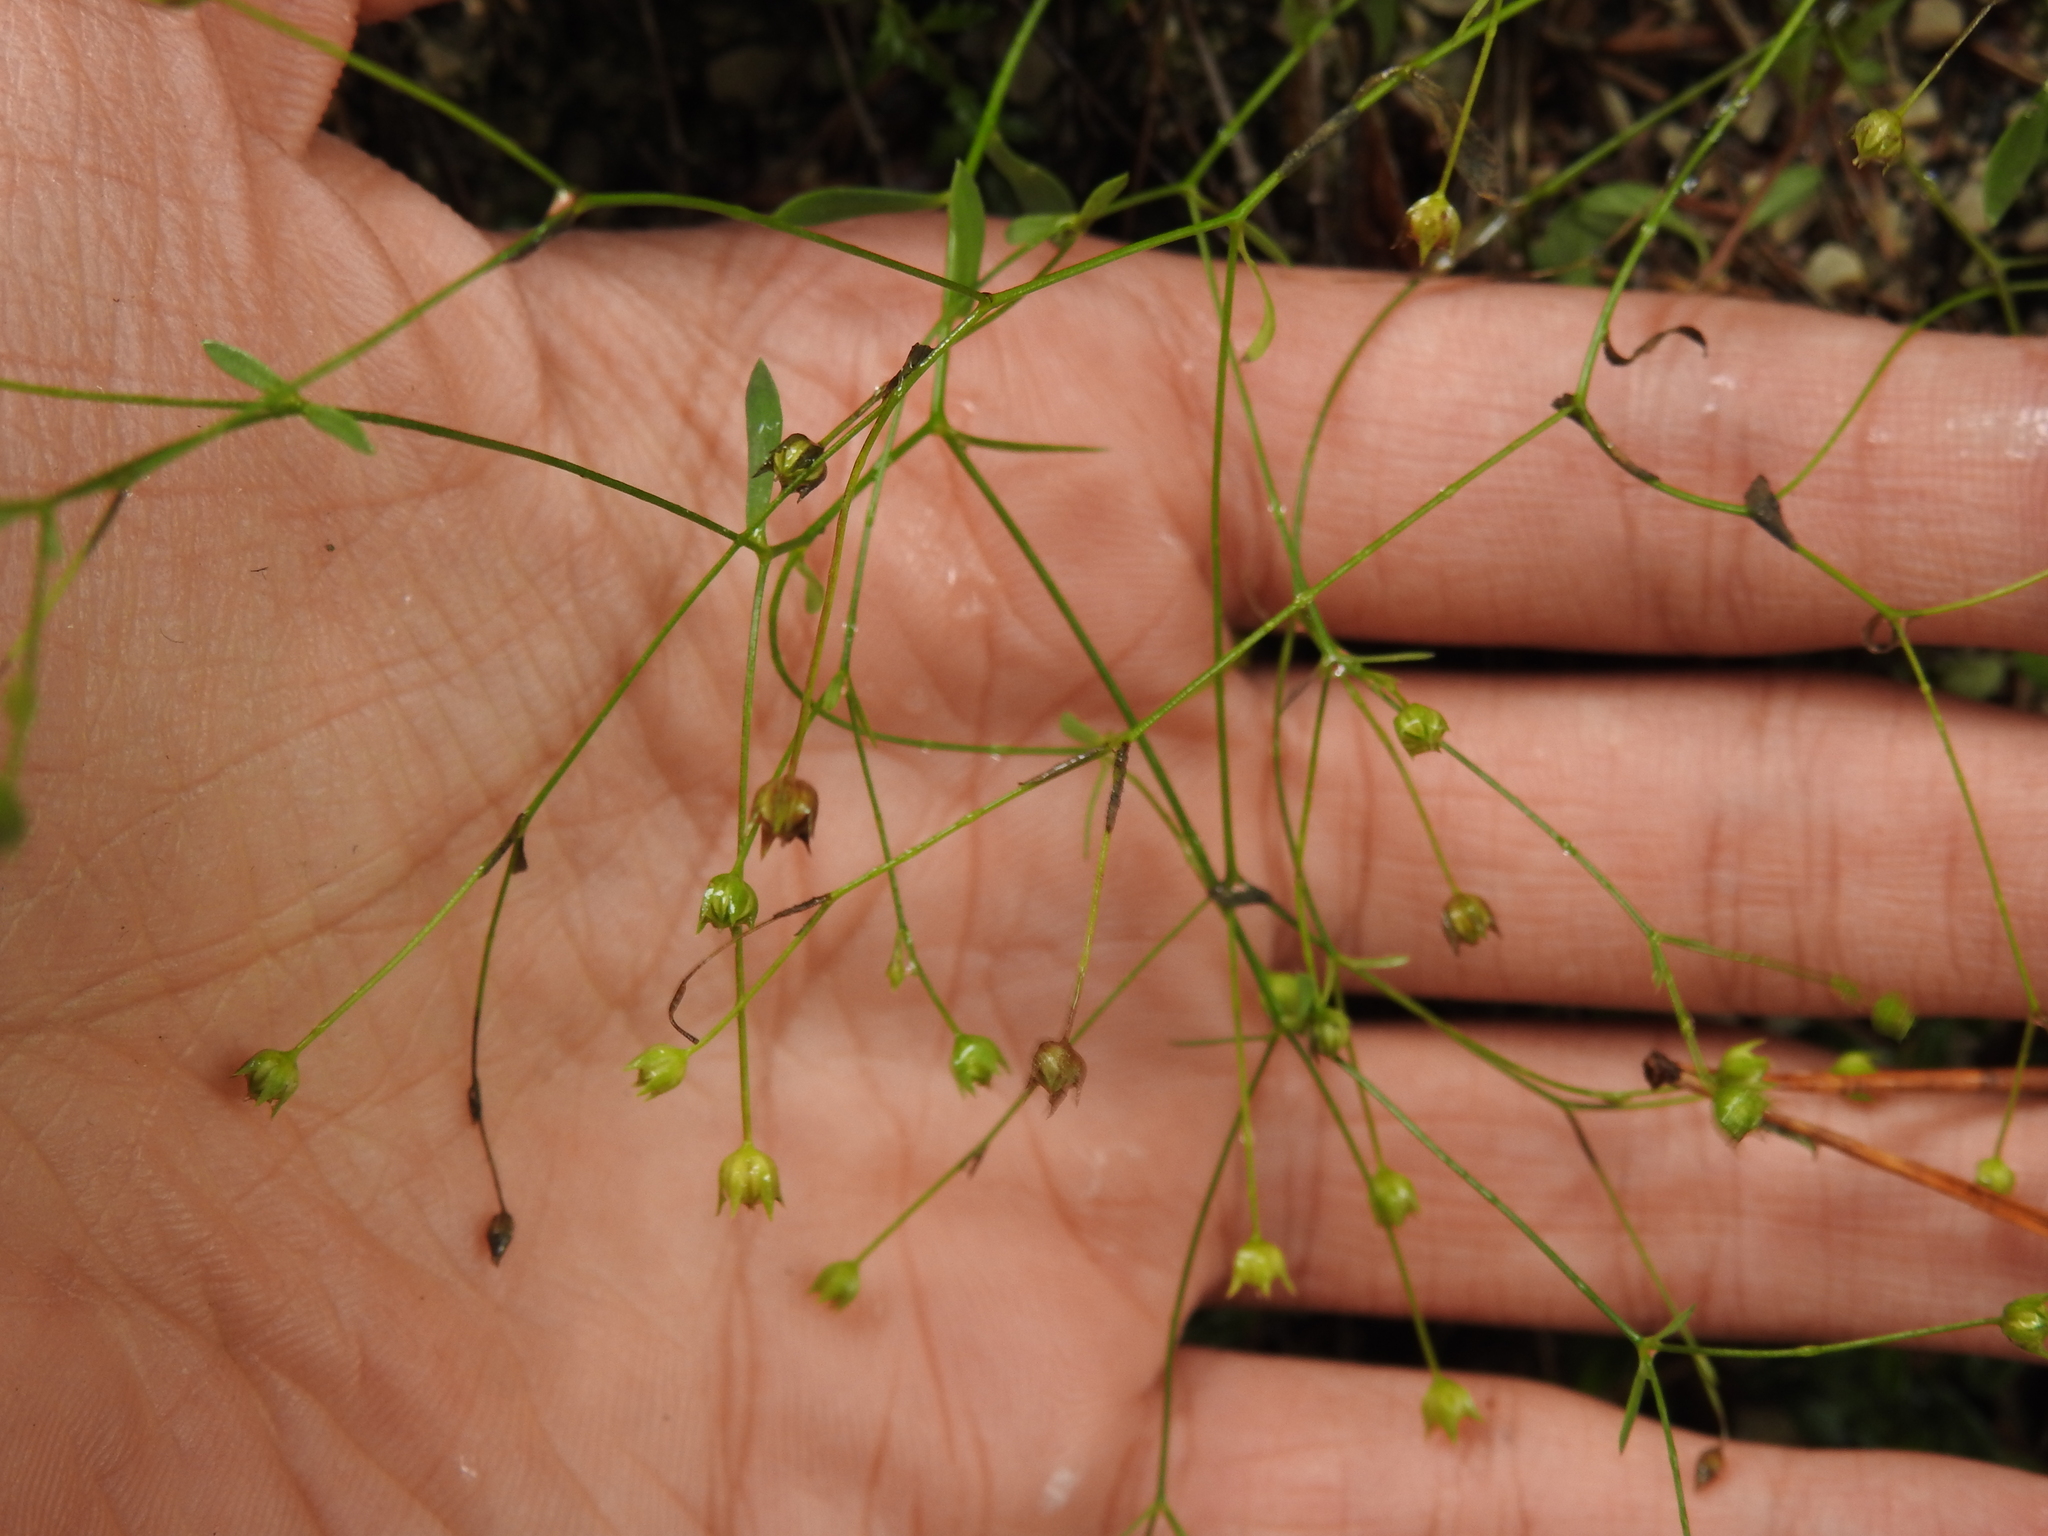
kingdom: Plantae
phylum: Tracheophyta
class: Magnoliopsida
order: Malpighiales
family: Linaceae
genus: Linum
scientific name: Linum catharticum
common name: Fairy flax
